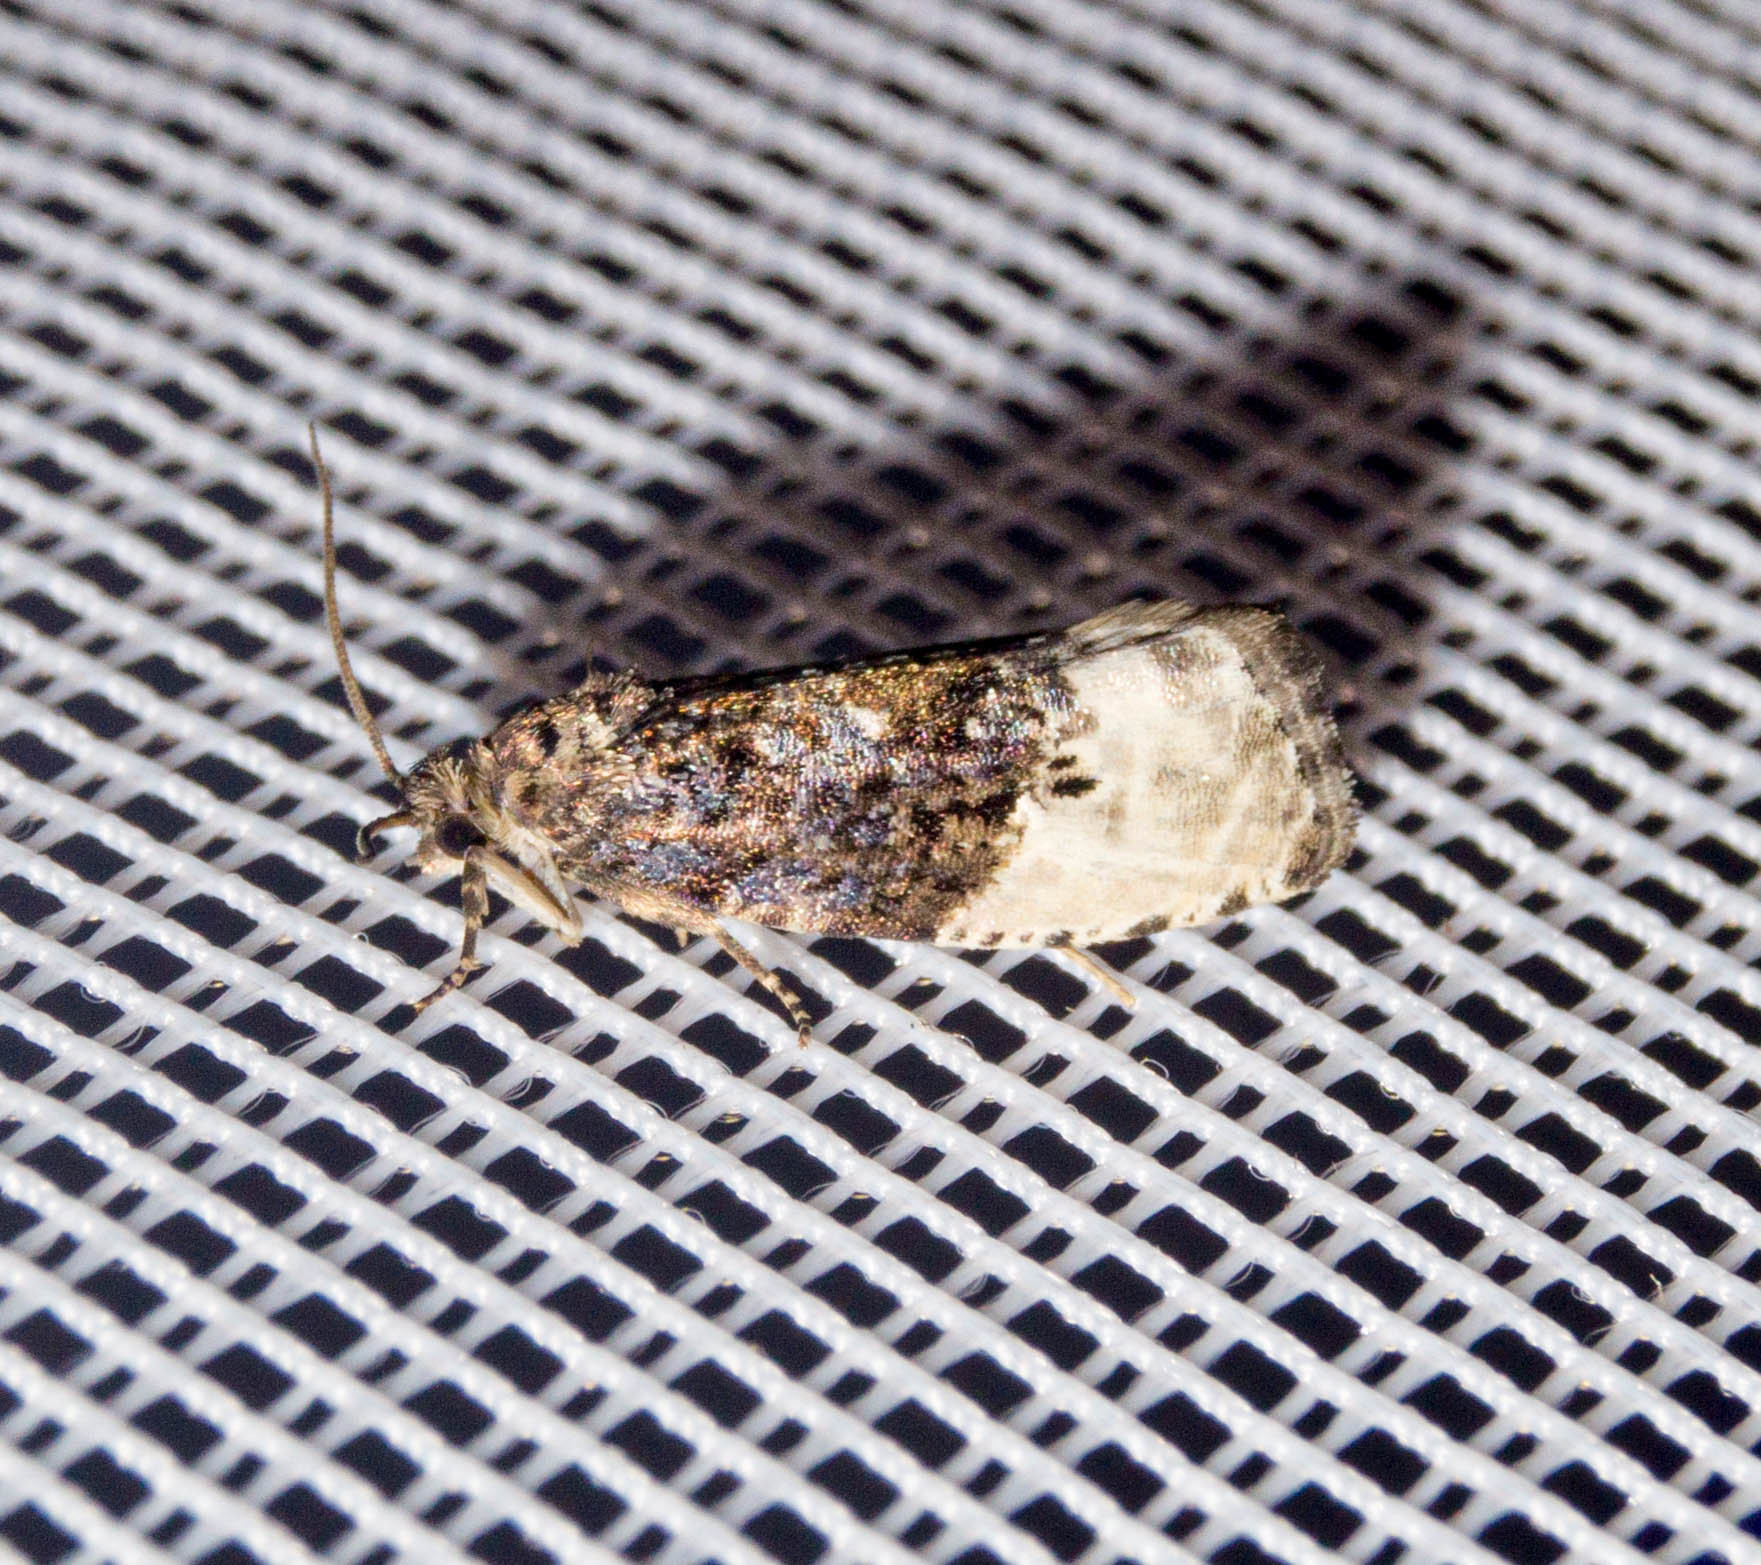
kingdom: Animalia
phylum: Arthropoda
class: Insecta
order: Lepidoptera
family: Tortricidae
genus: Hedya
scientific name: Hedya nubiferana
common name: Marbled orchard tortrix
